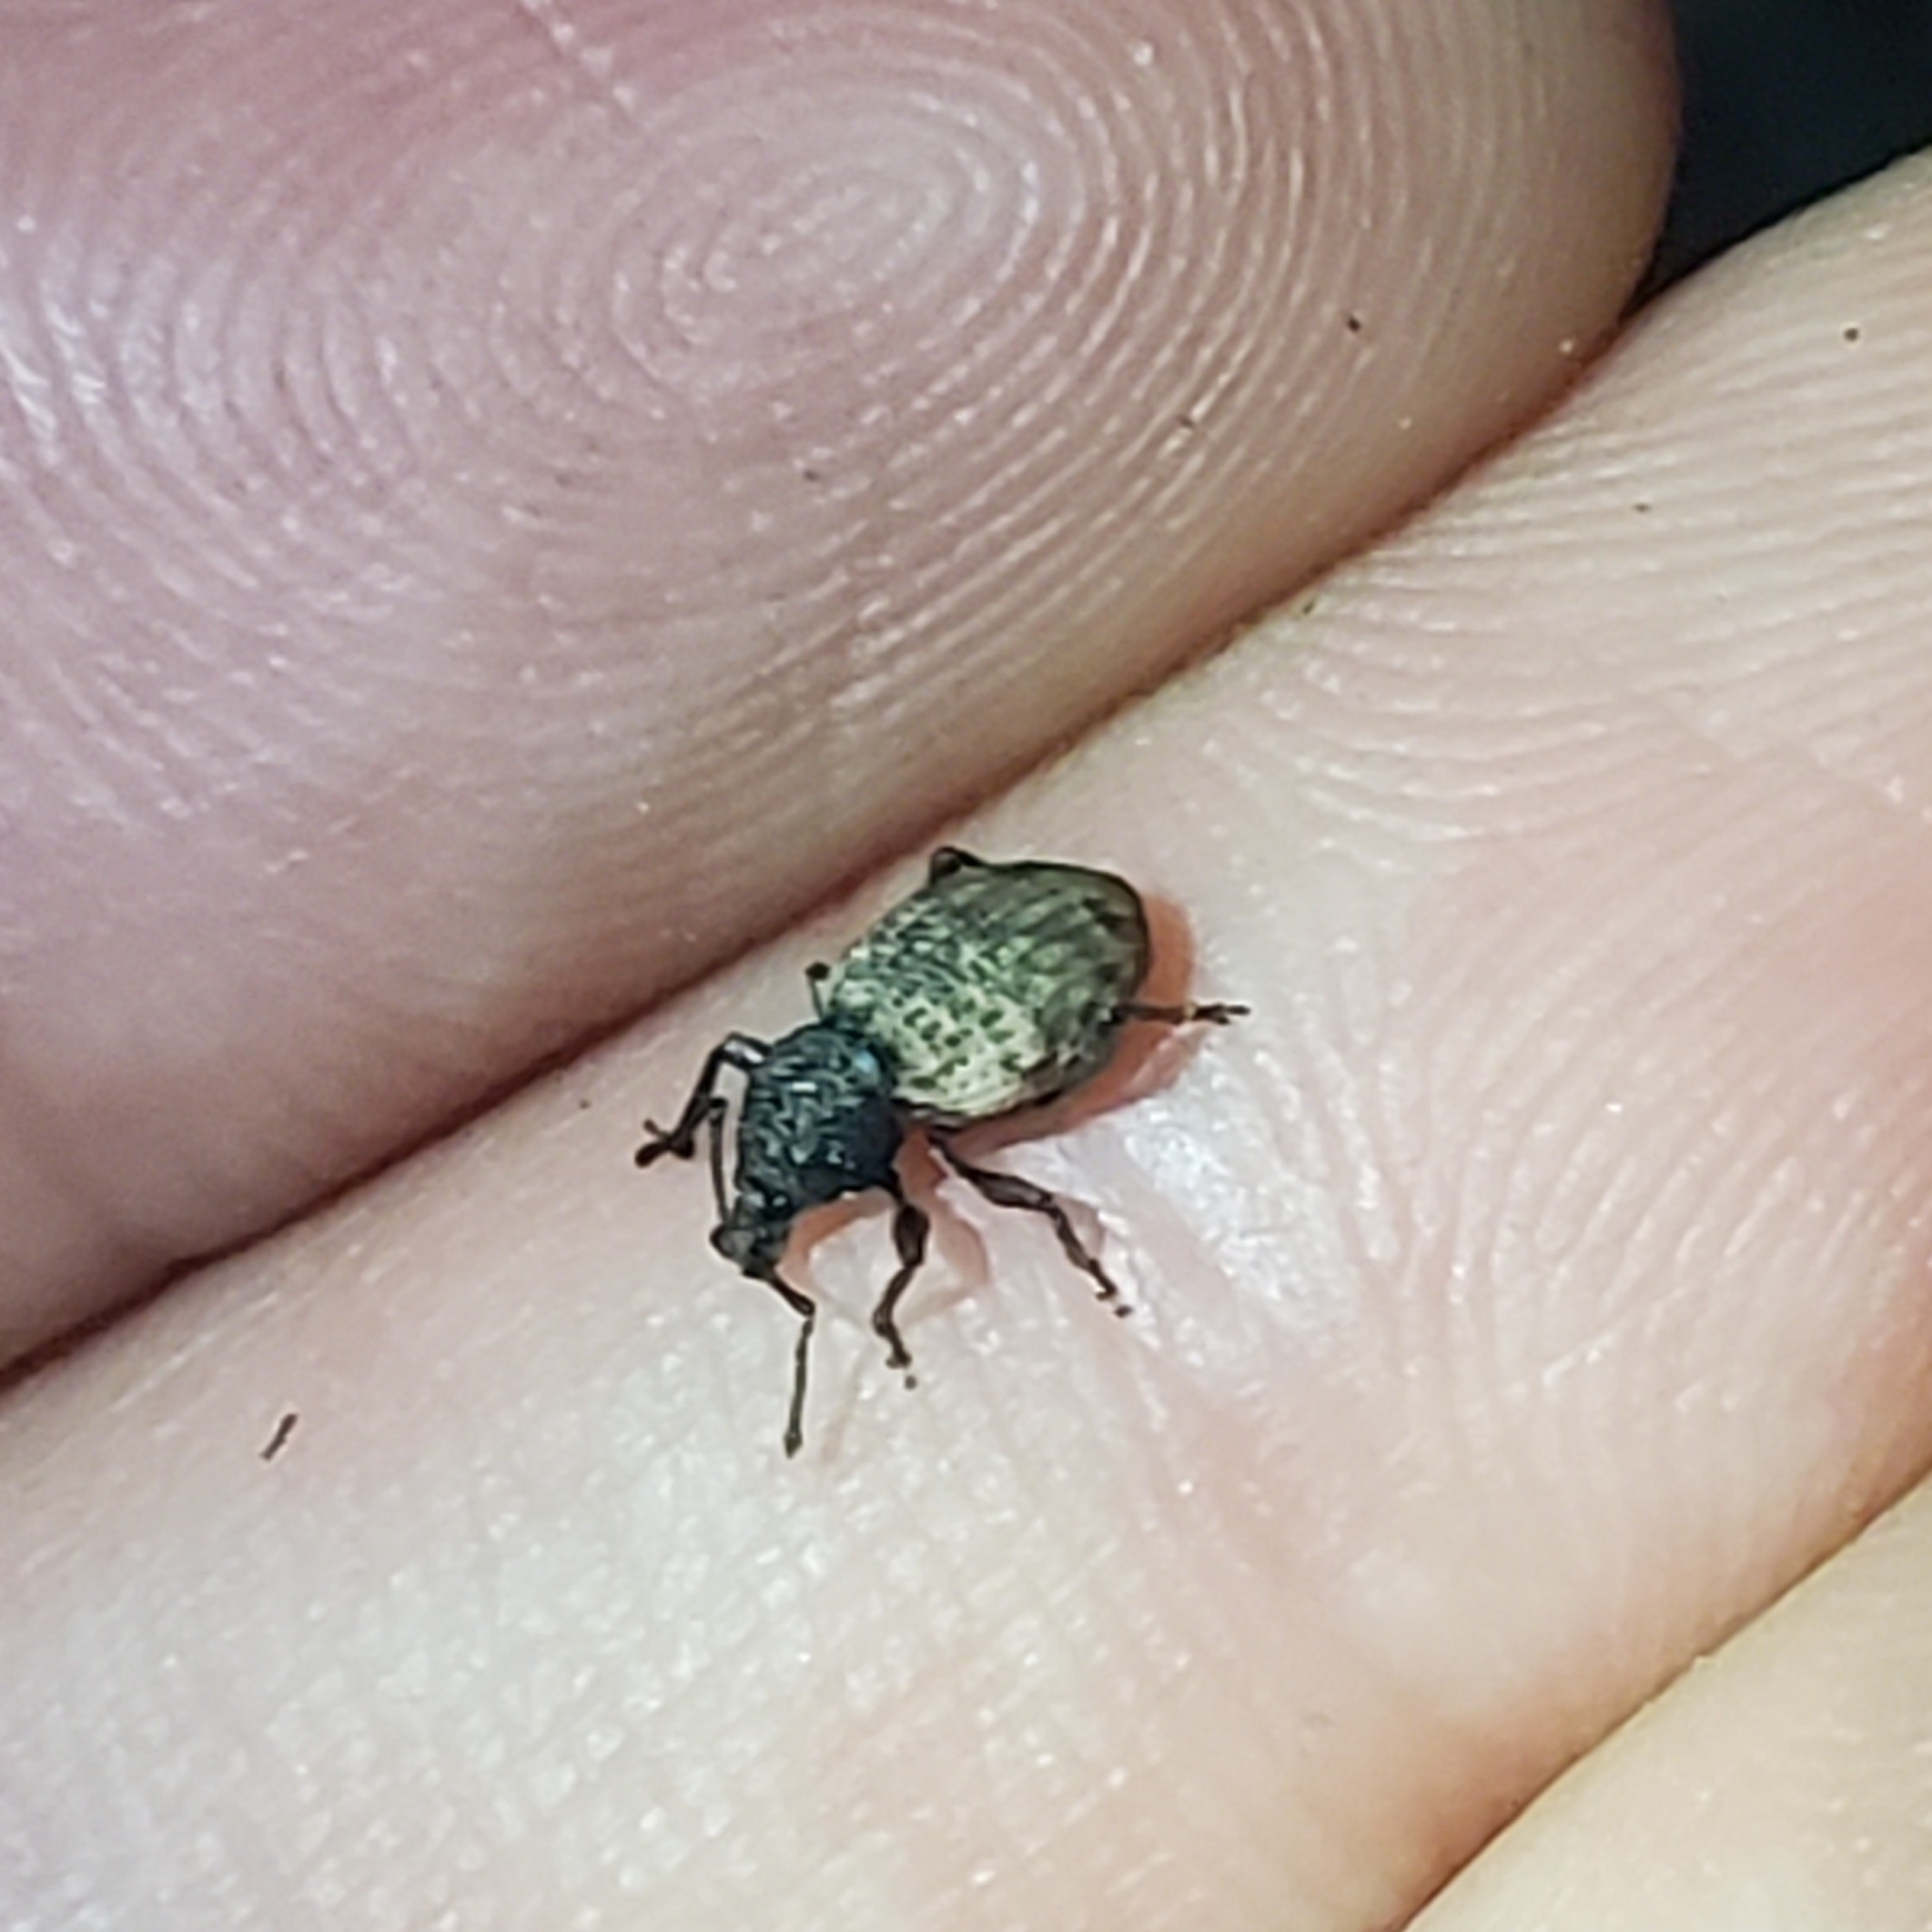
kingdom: Animalia
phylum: Arthropoda
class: Insecta
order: Coleoptera
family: Curculionidae
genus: Otiorhynchus
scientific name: Otiorhynchus raucus
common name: Weevil
